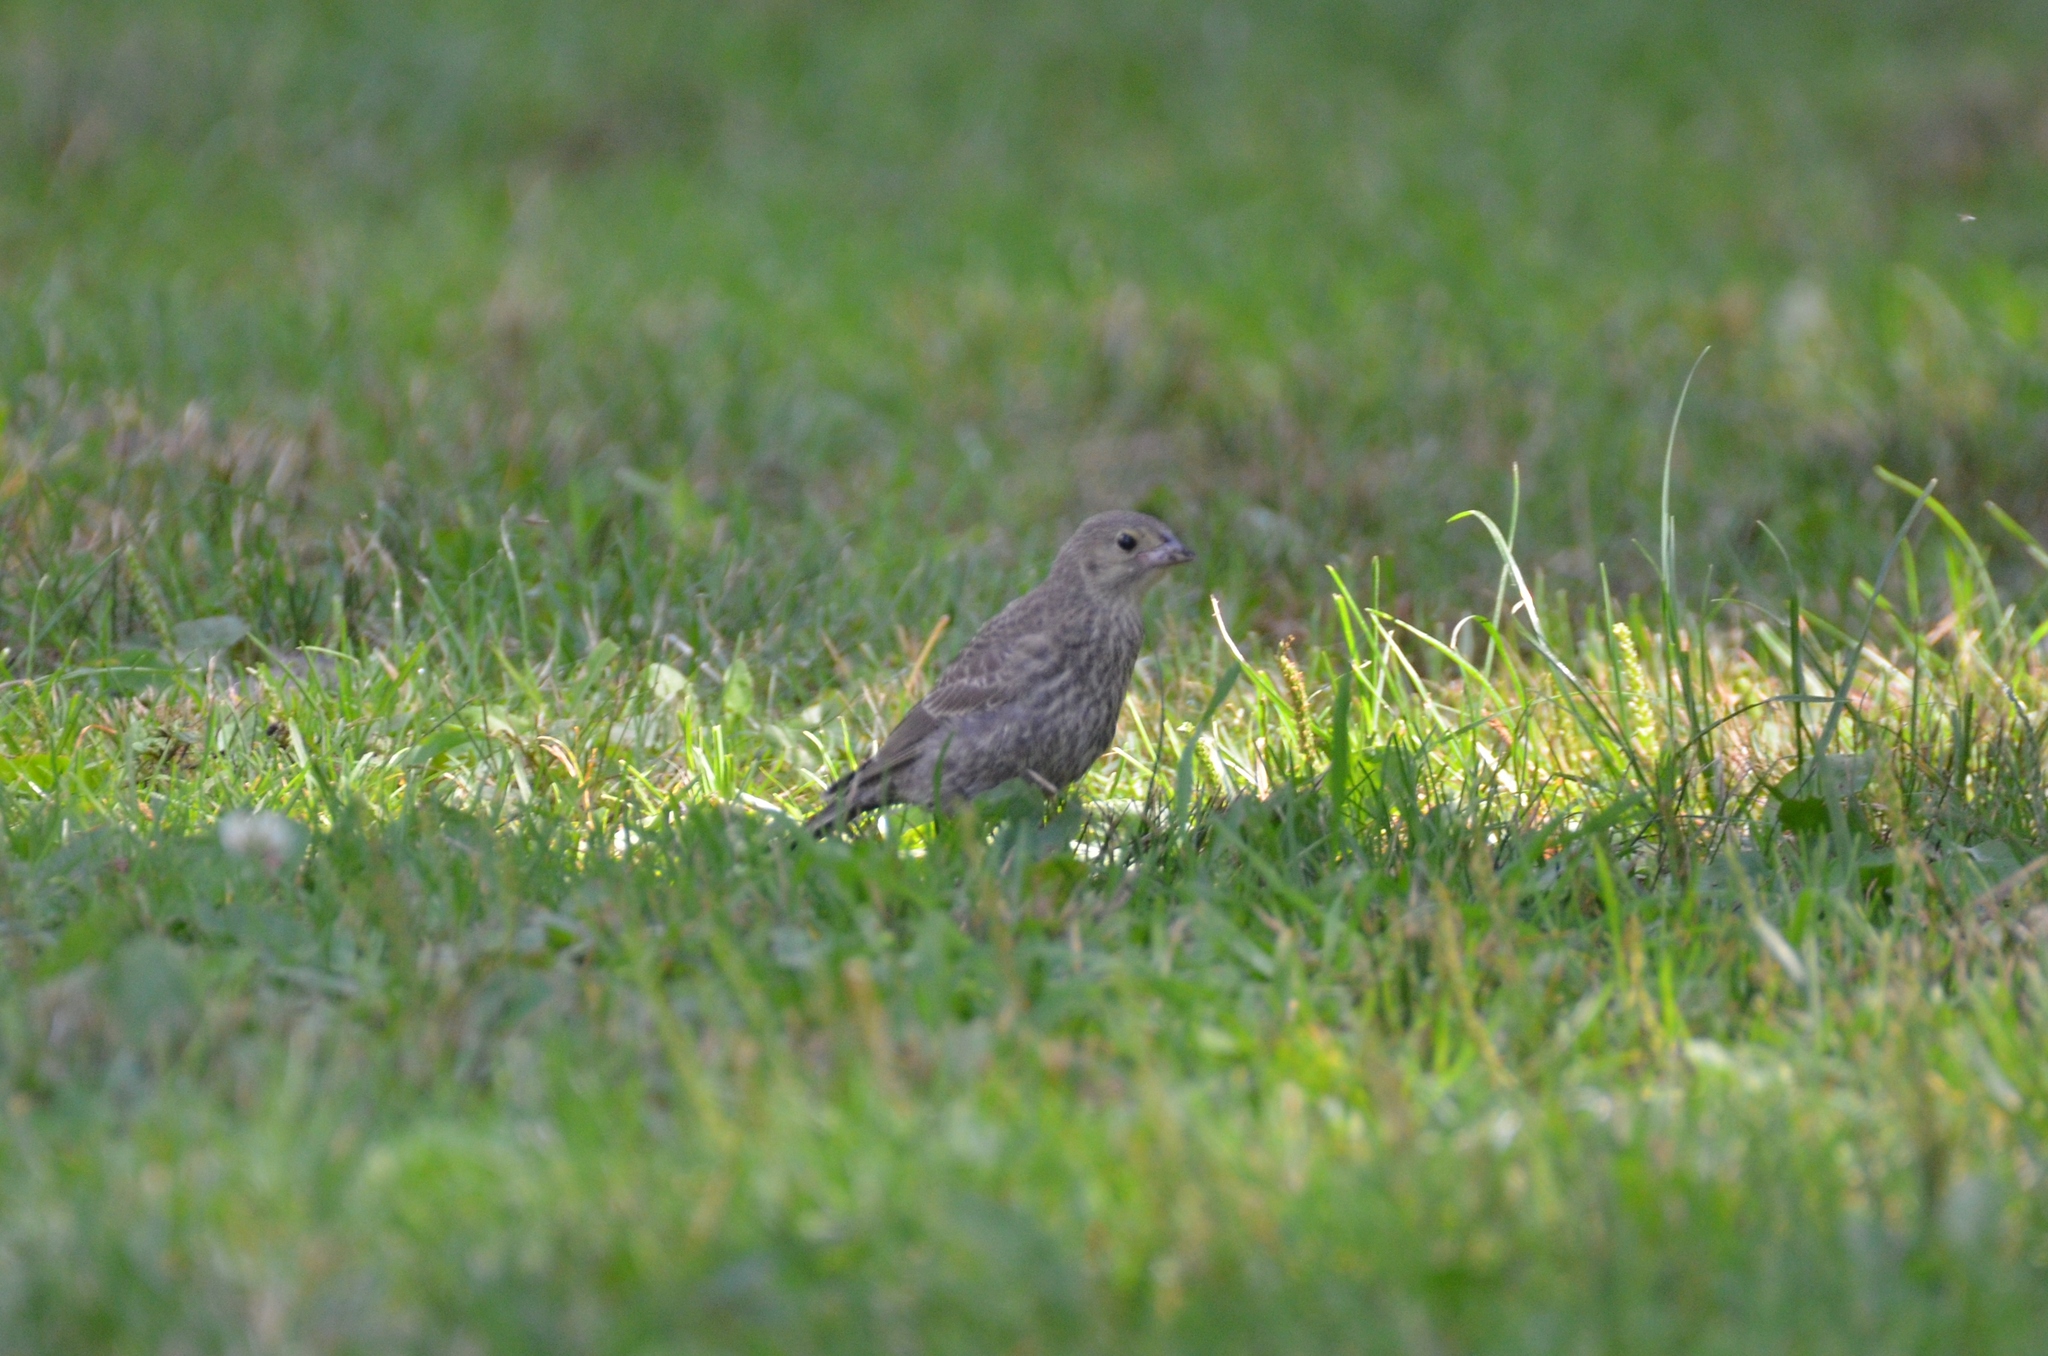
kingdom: Animalia
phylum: Chordata
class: Aves
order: Passeriformes
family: Icteridae
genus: Molothrus
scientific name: Molothrus ater
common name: Brown-headed cowbird
